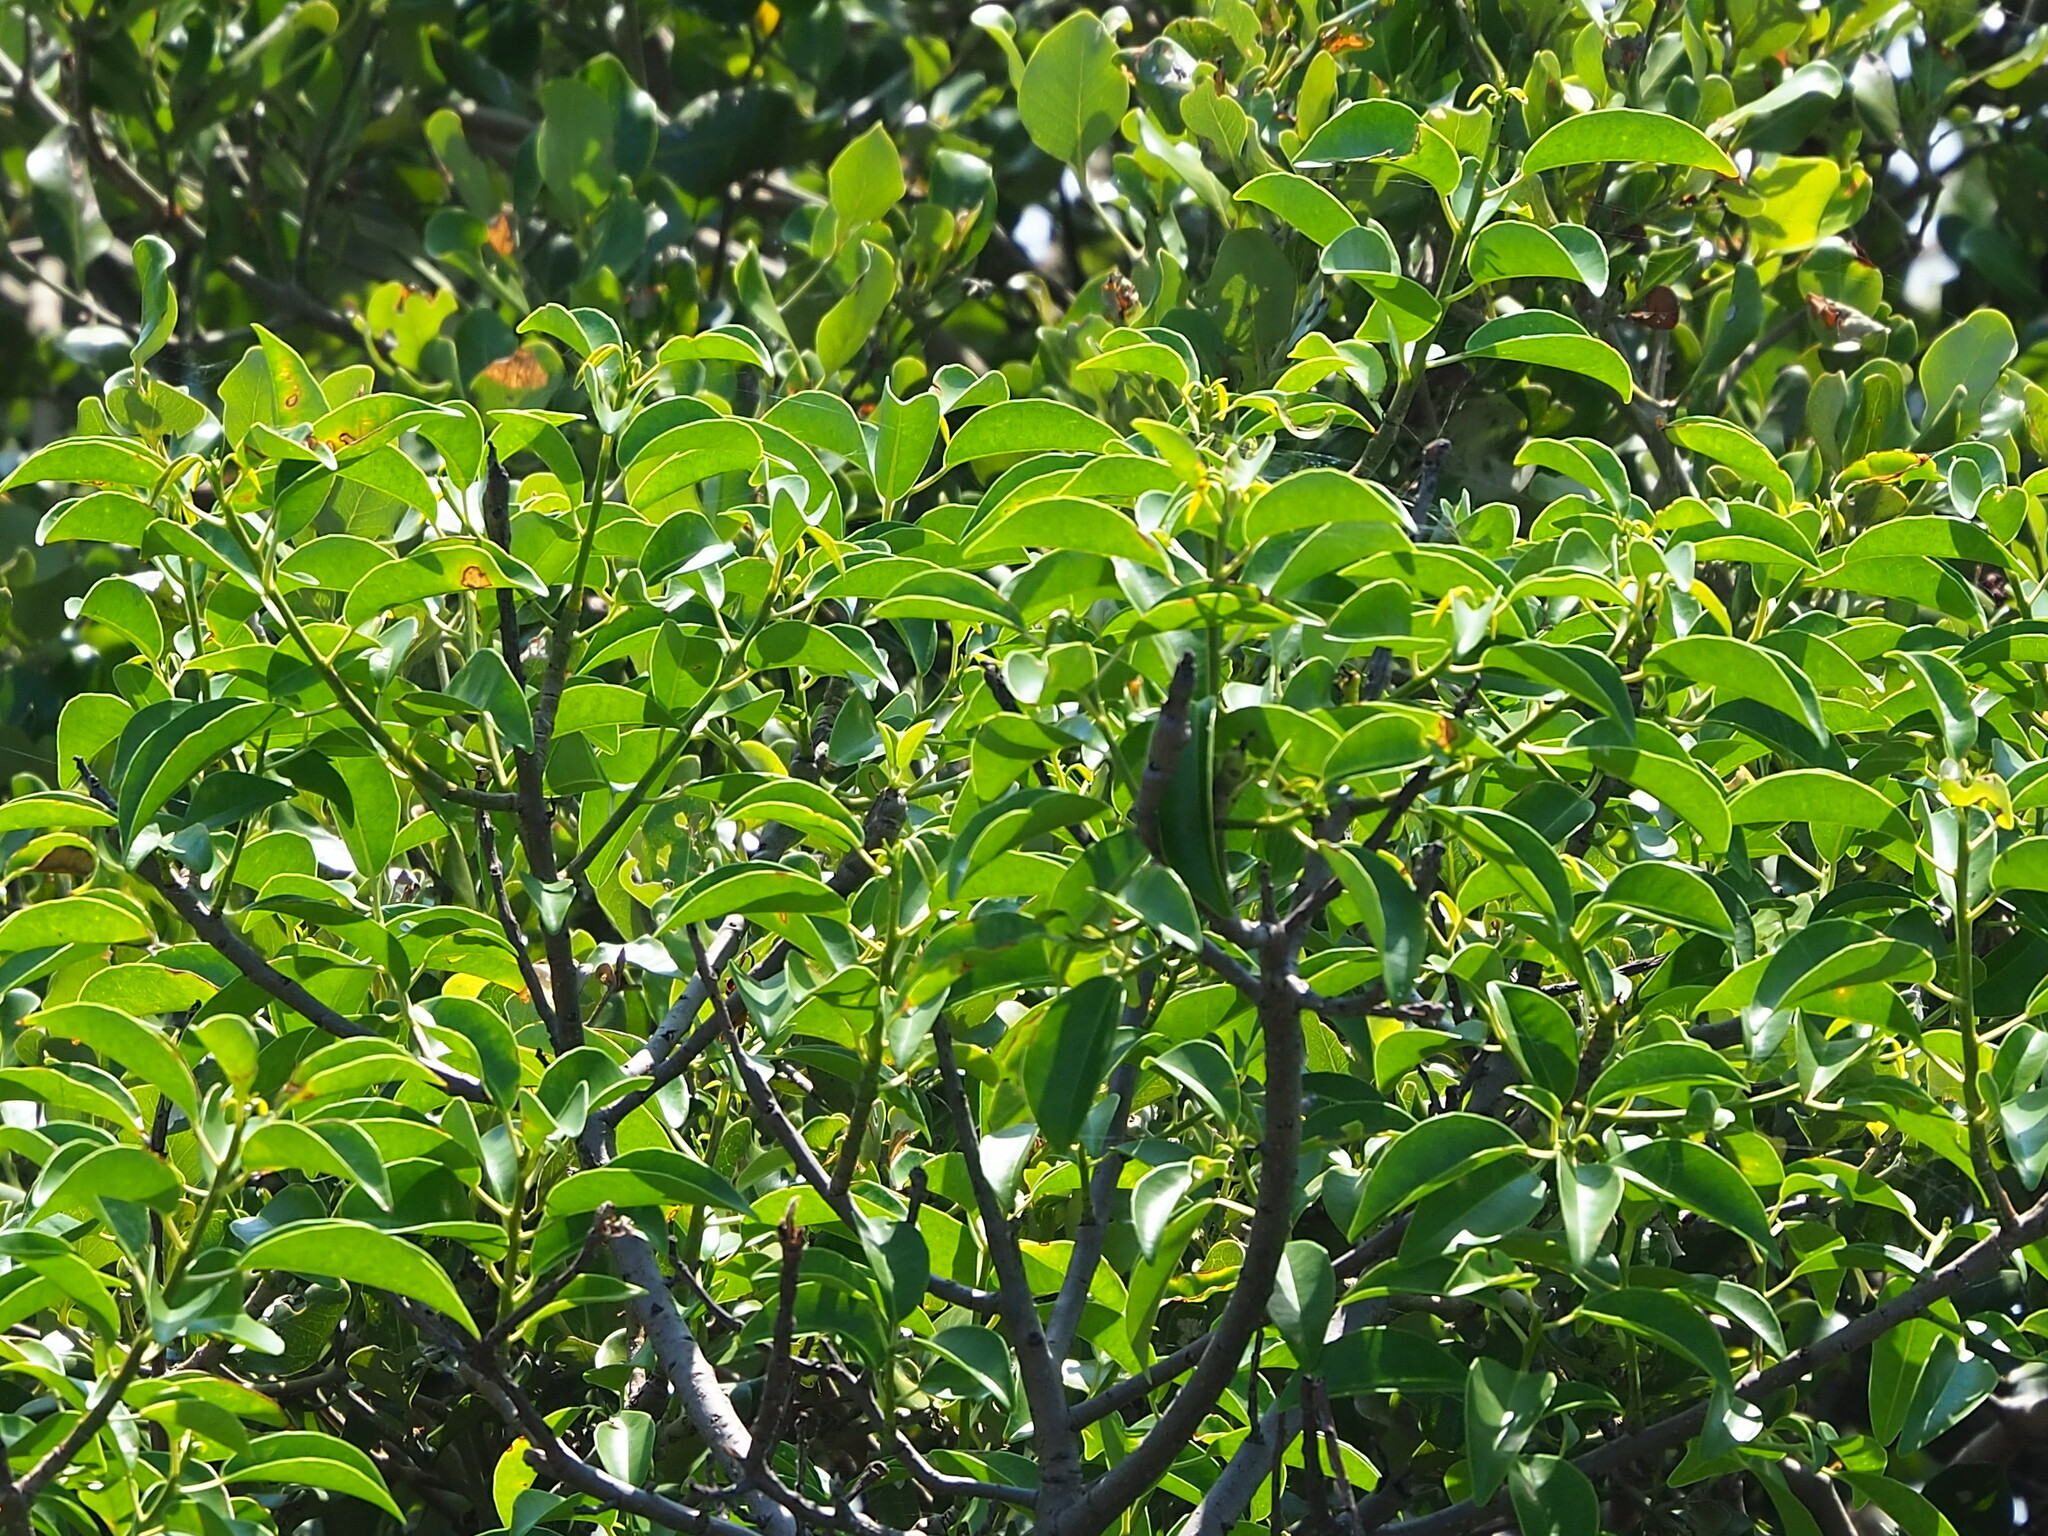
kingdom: Plantae
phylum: Tracheophyta
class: Magnoliopsida
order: Malpighiales
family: Euphorbiaceae
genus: Excoecaria
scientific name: Excoecaria agallocha
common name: River poisontree
